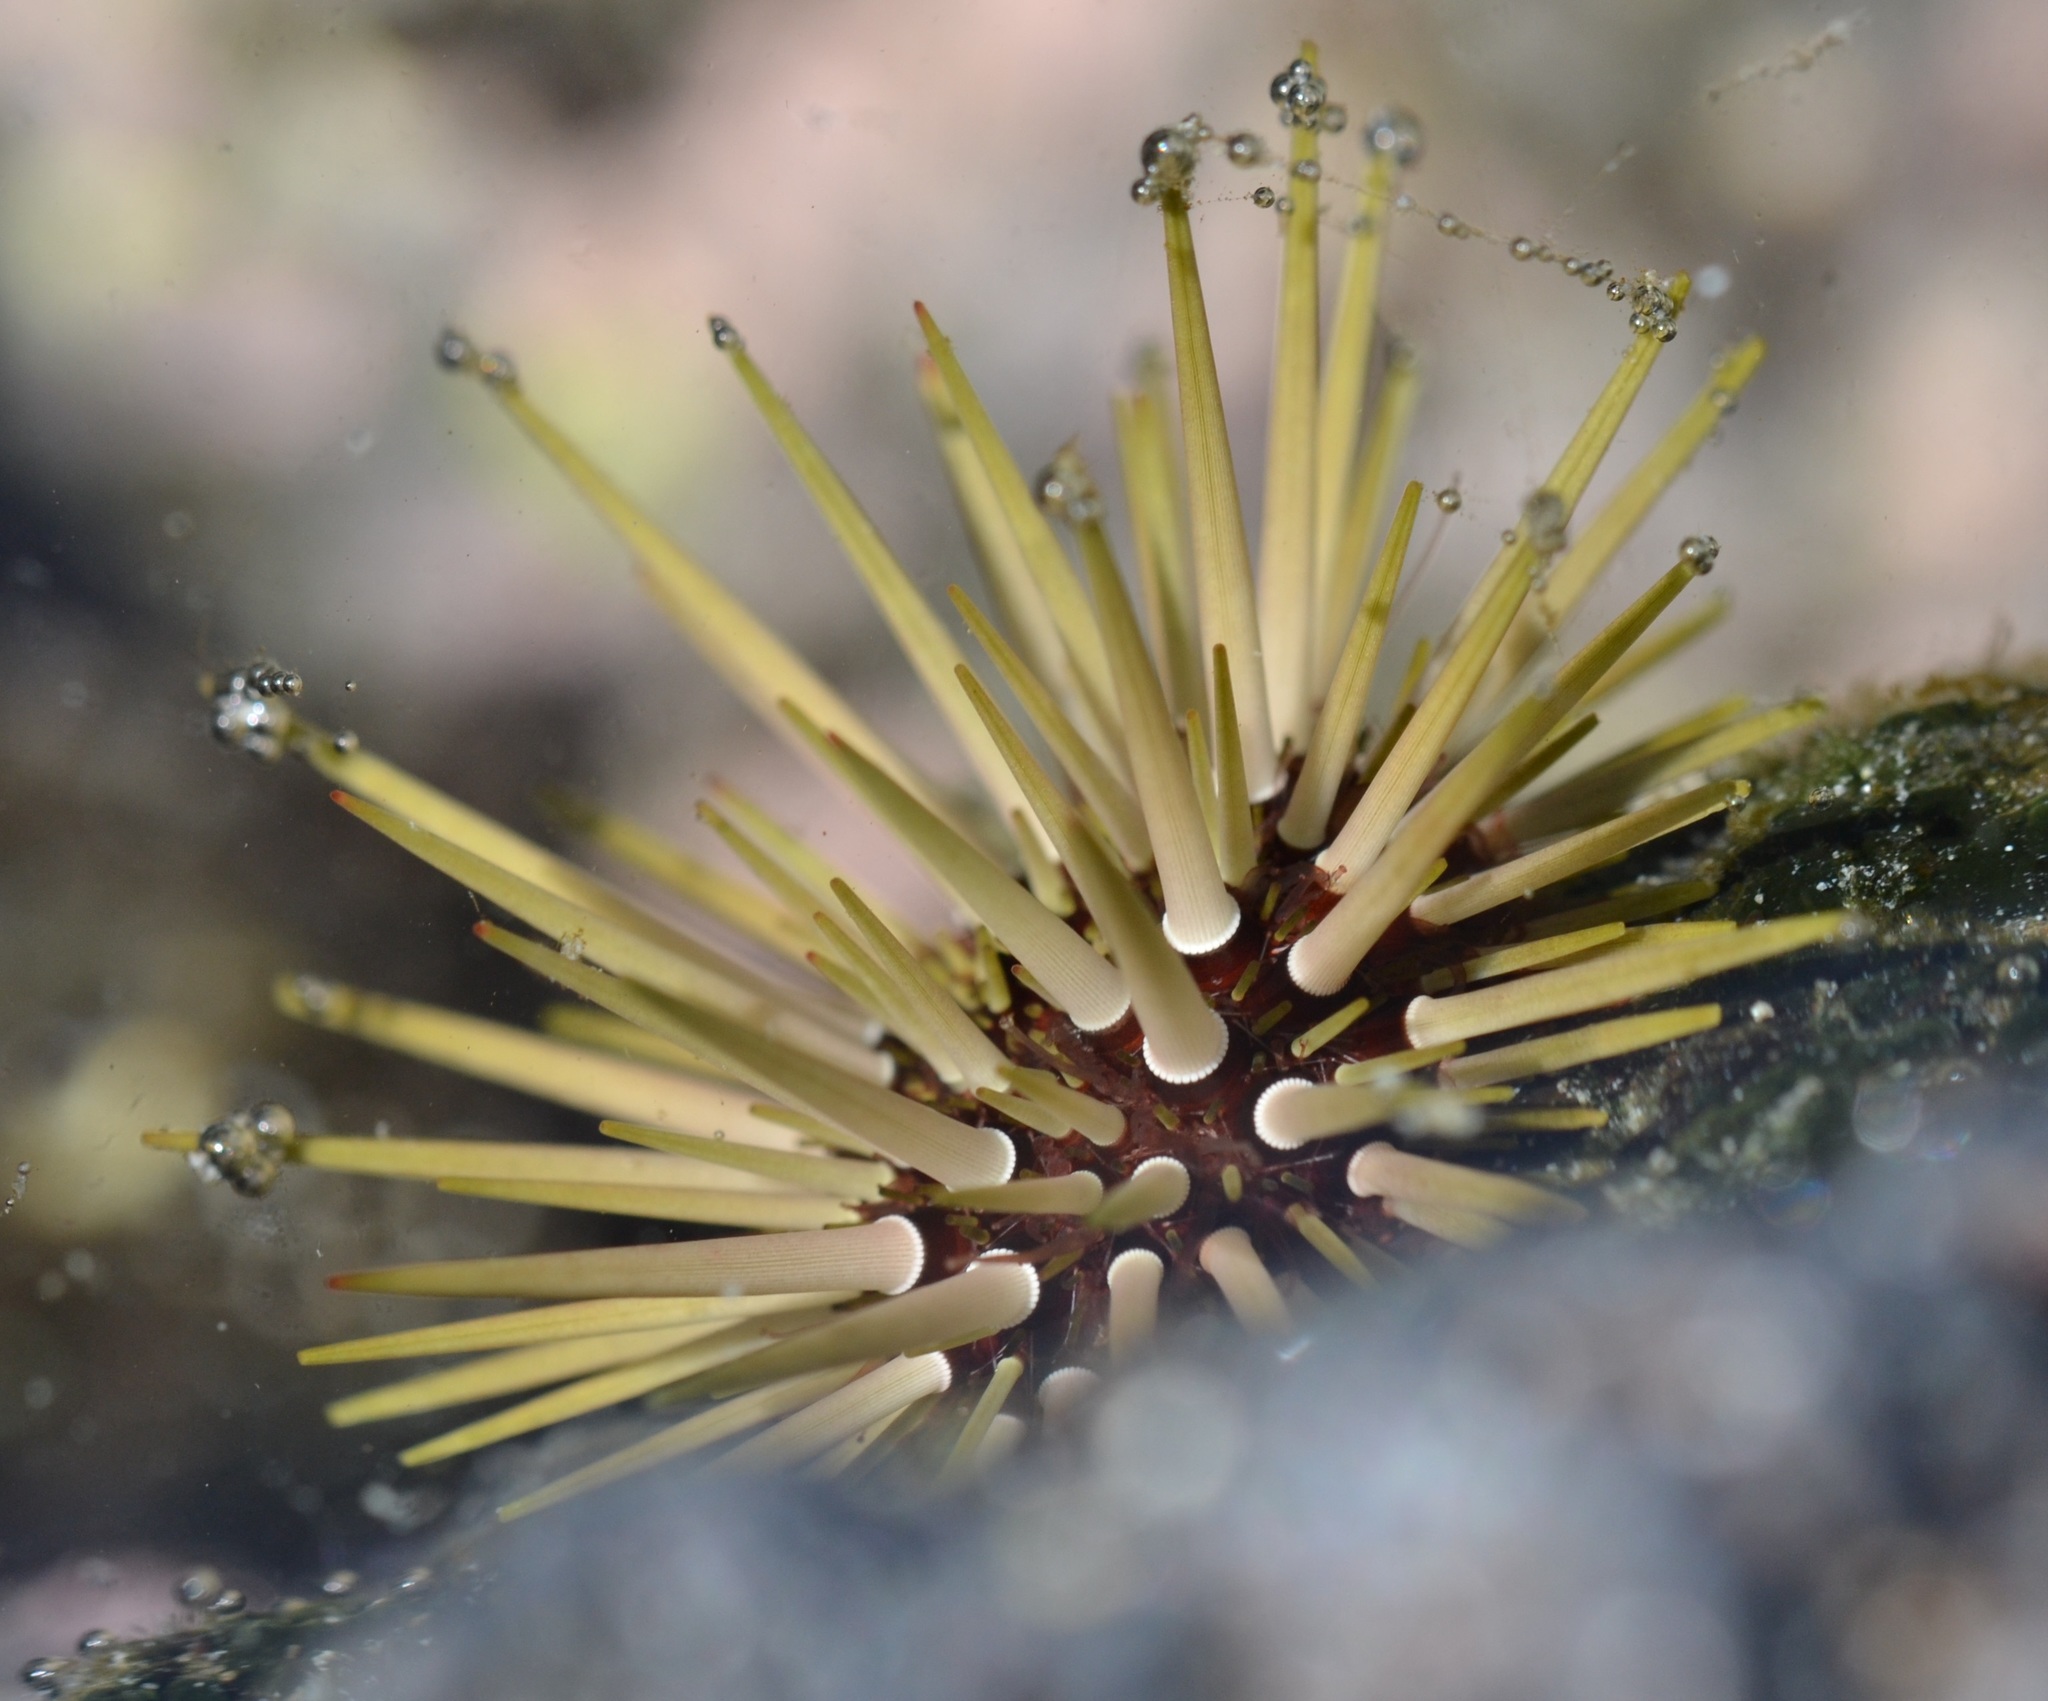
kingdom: Animalia
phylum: Echinodermata
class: Echinoidea
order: Camarodonta
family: Echinometridae
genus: Echinometra
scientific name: Echinometra mathaei
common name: Rock-boring urchin
